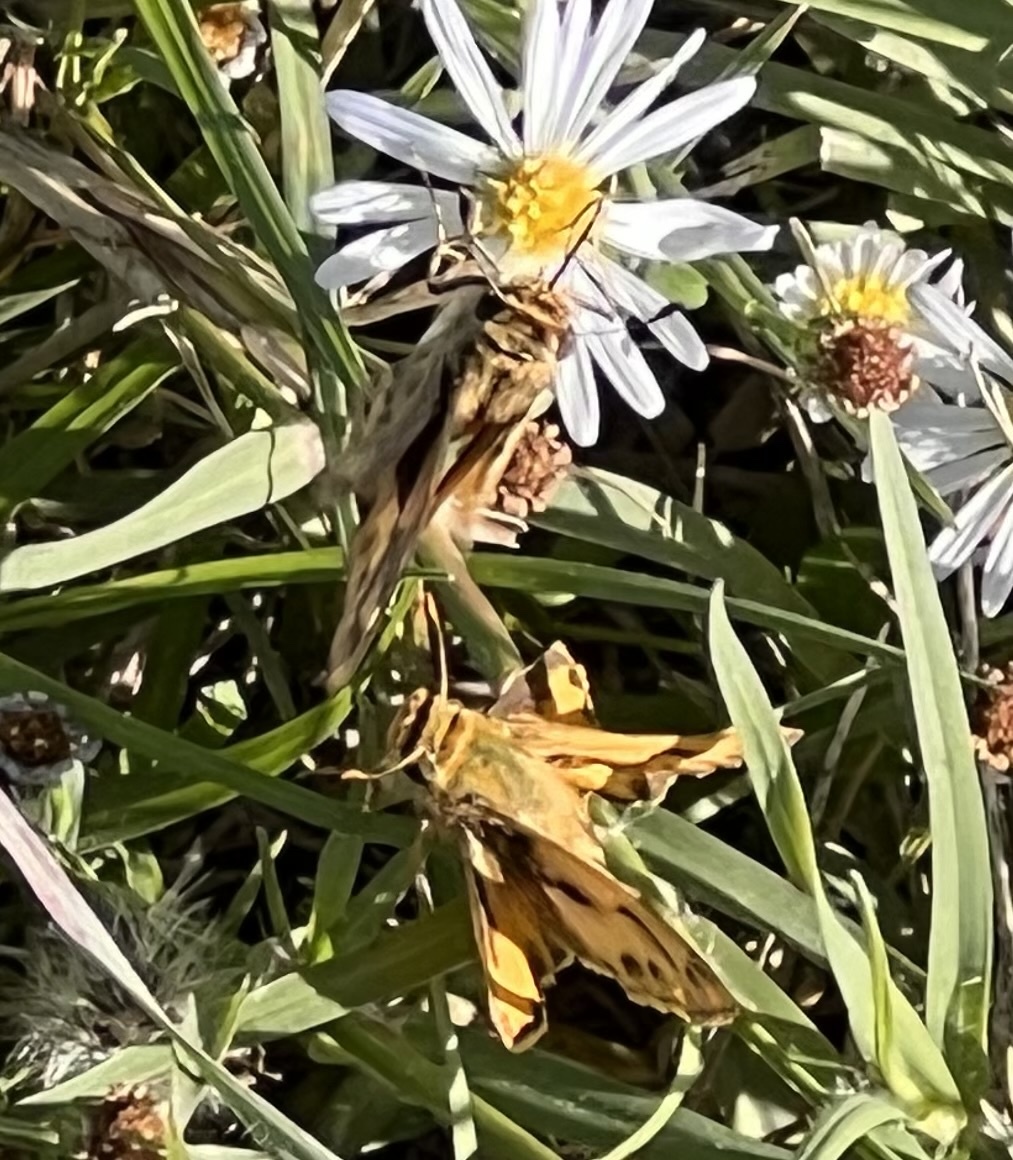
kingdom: Animalia
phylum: Arthropoda
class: Insecta
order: Lepidoptera
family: Hesperiidae
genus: Hylephila
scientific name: Hylephila phyleus
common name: Fiery skipper
